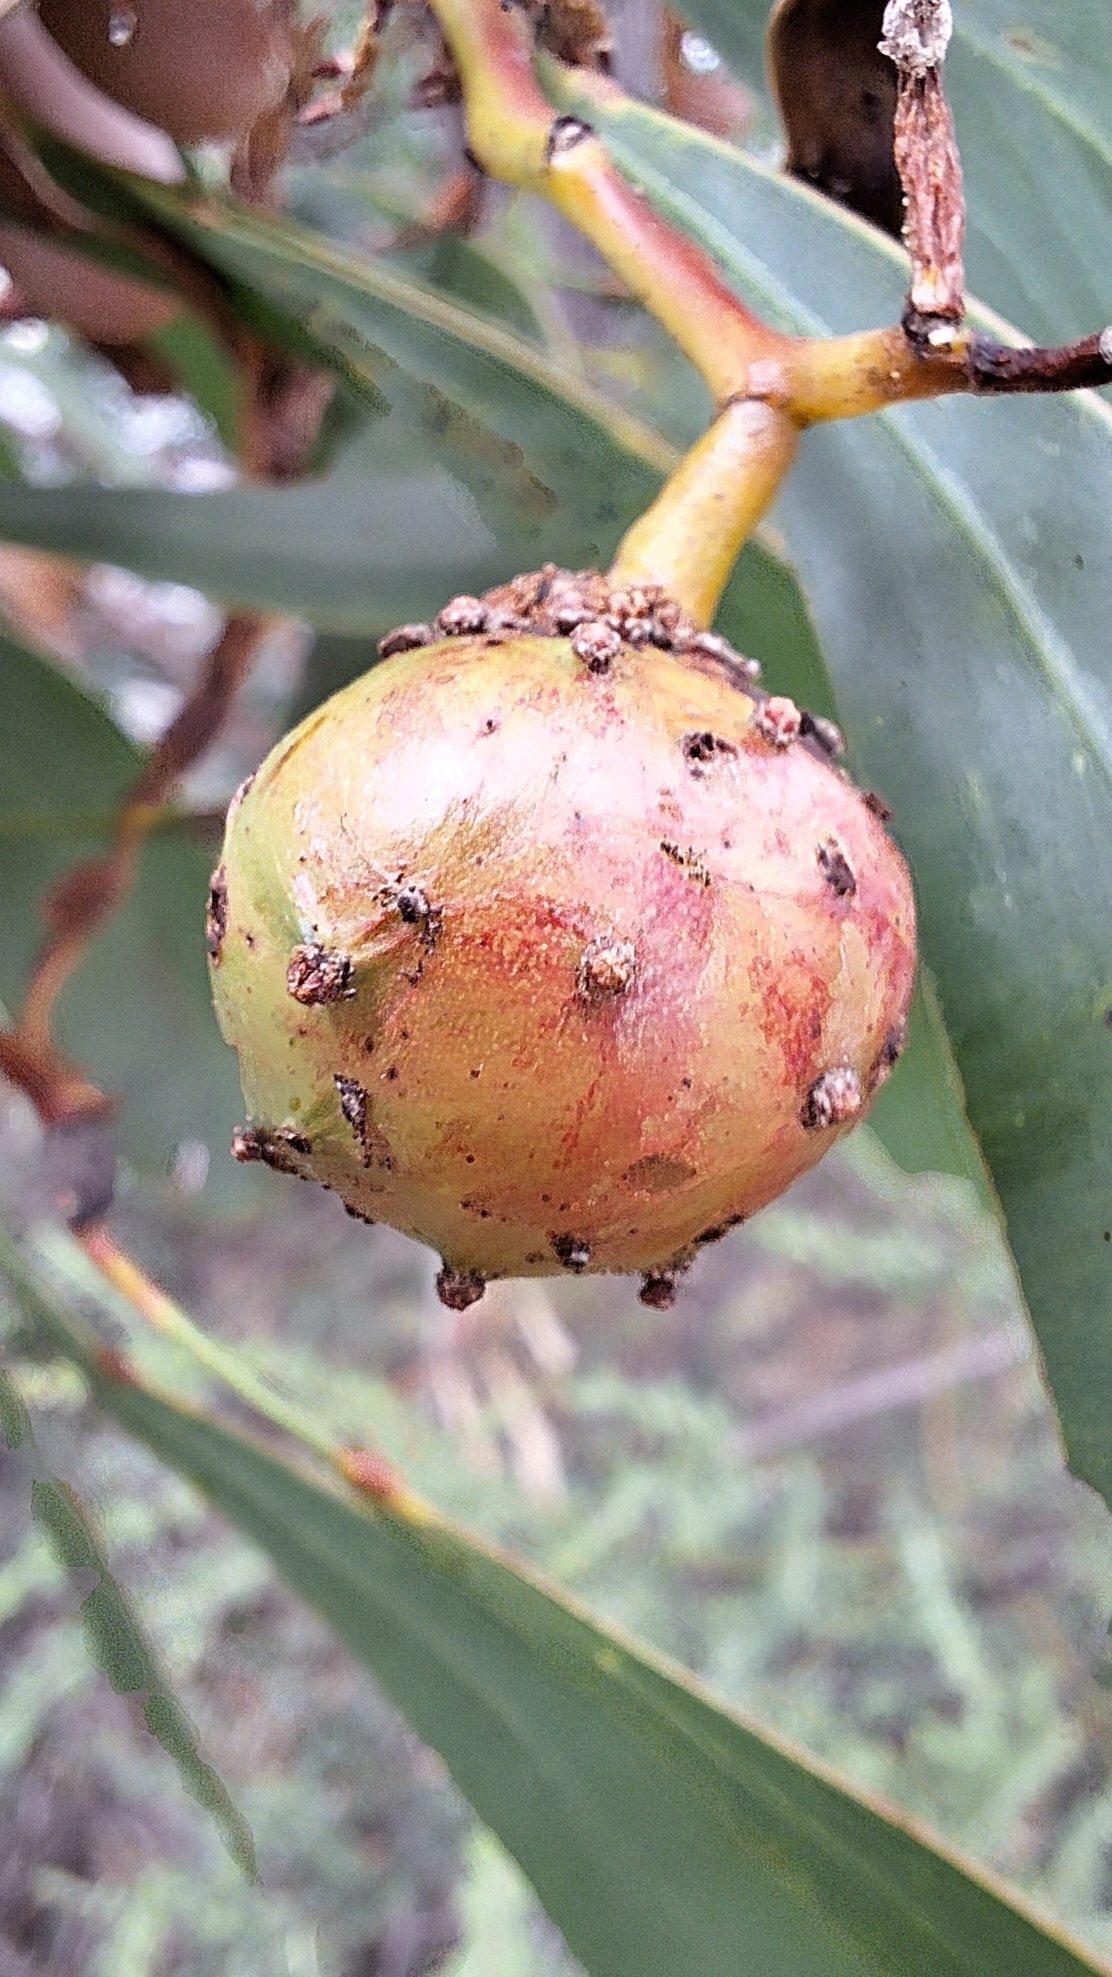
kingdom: Animalia
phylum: Arthropoda
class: Insecta
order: Hymenoptera
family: Pteromalidae
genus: Trichilogaster
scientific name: Trichilogaster signiventris
